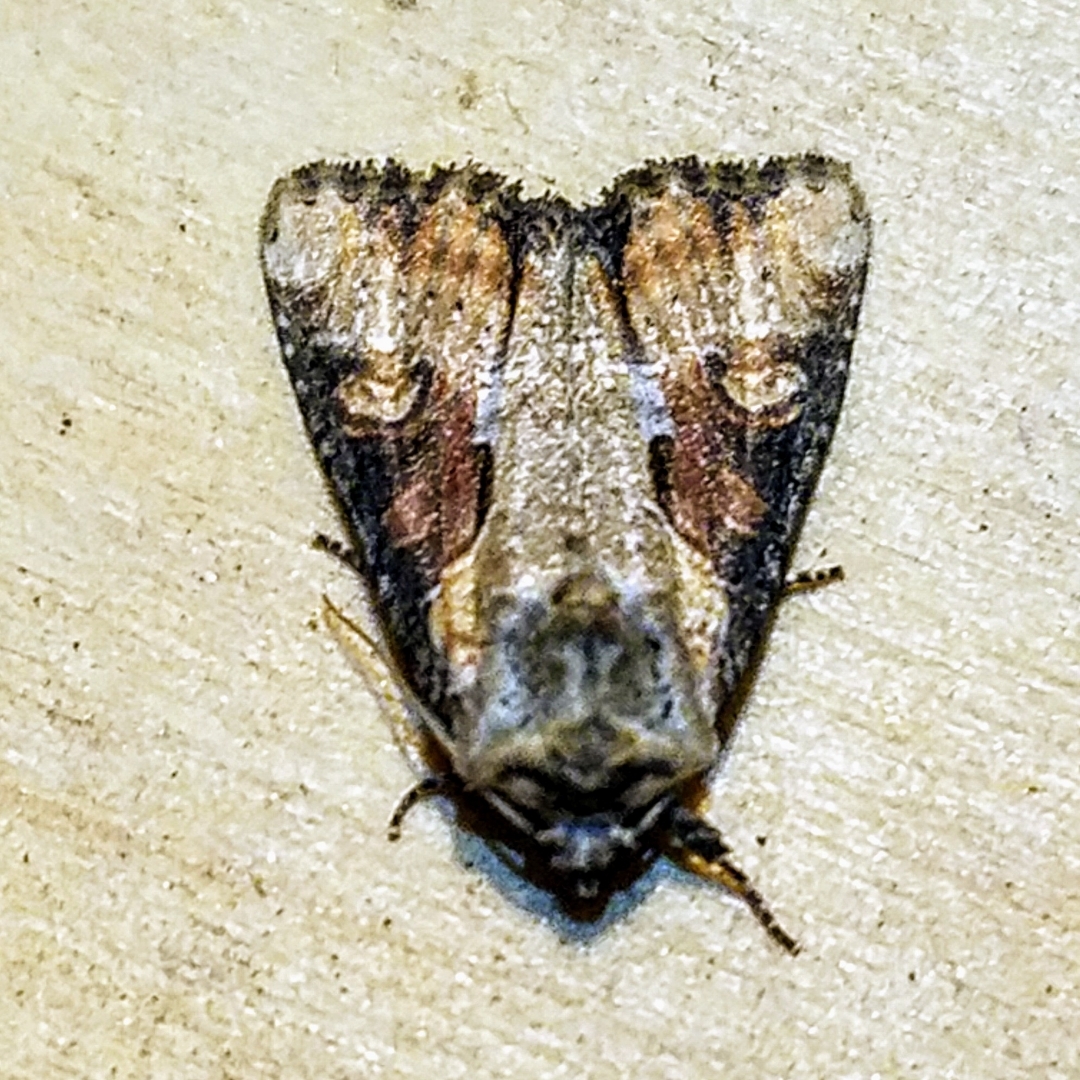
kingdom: Animalia
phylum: Arthropoda
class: Insecta
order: Lepidoptera
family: Noctuidae
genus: Lateroligia
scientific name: Lateroligia ophiogramma
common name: Double lobed
